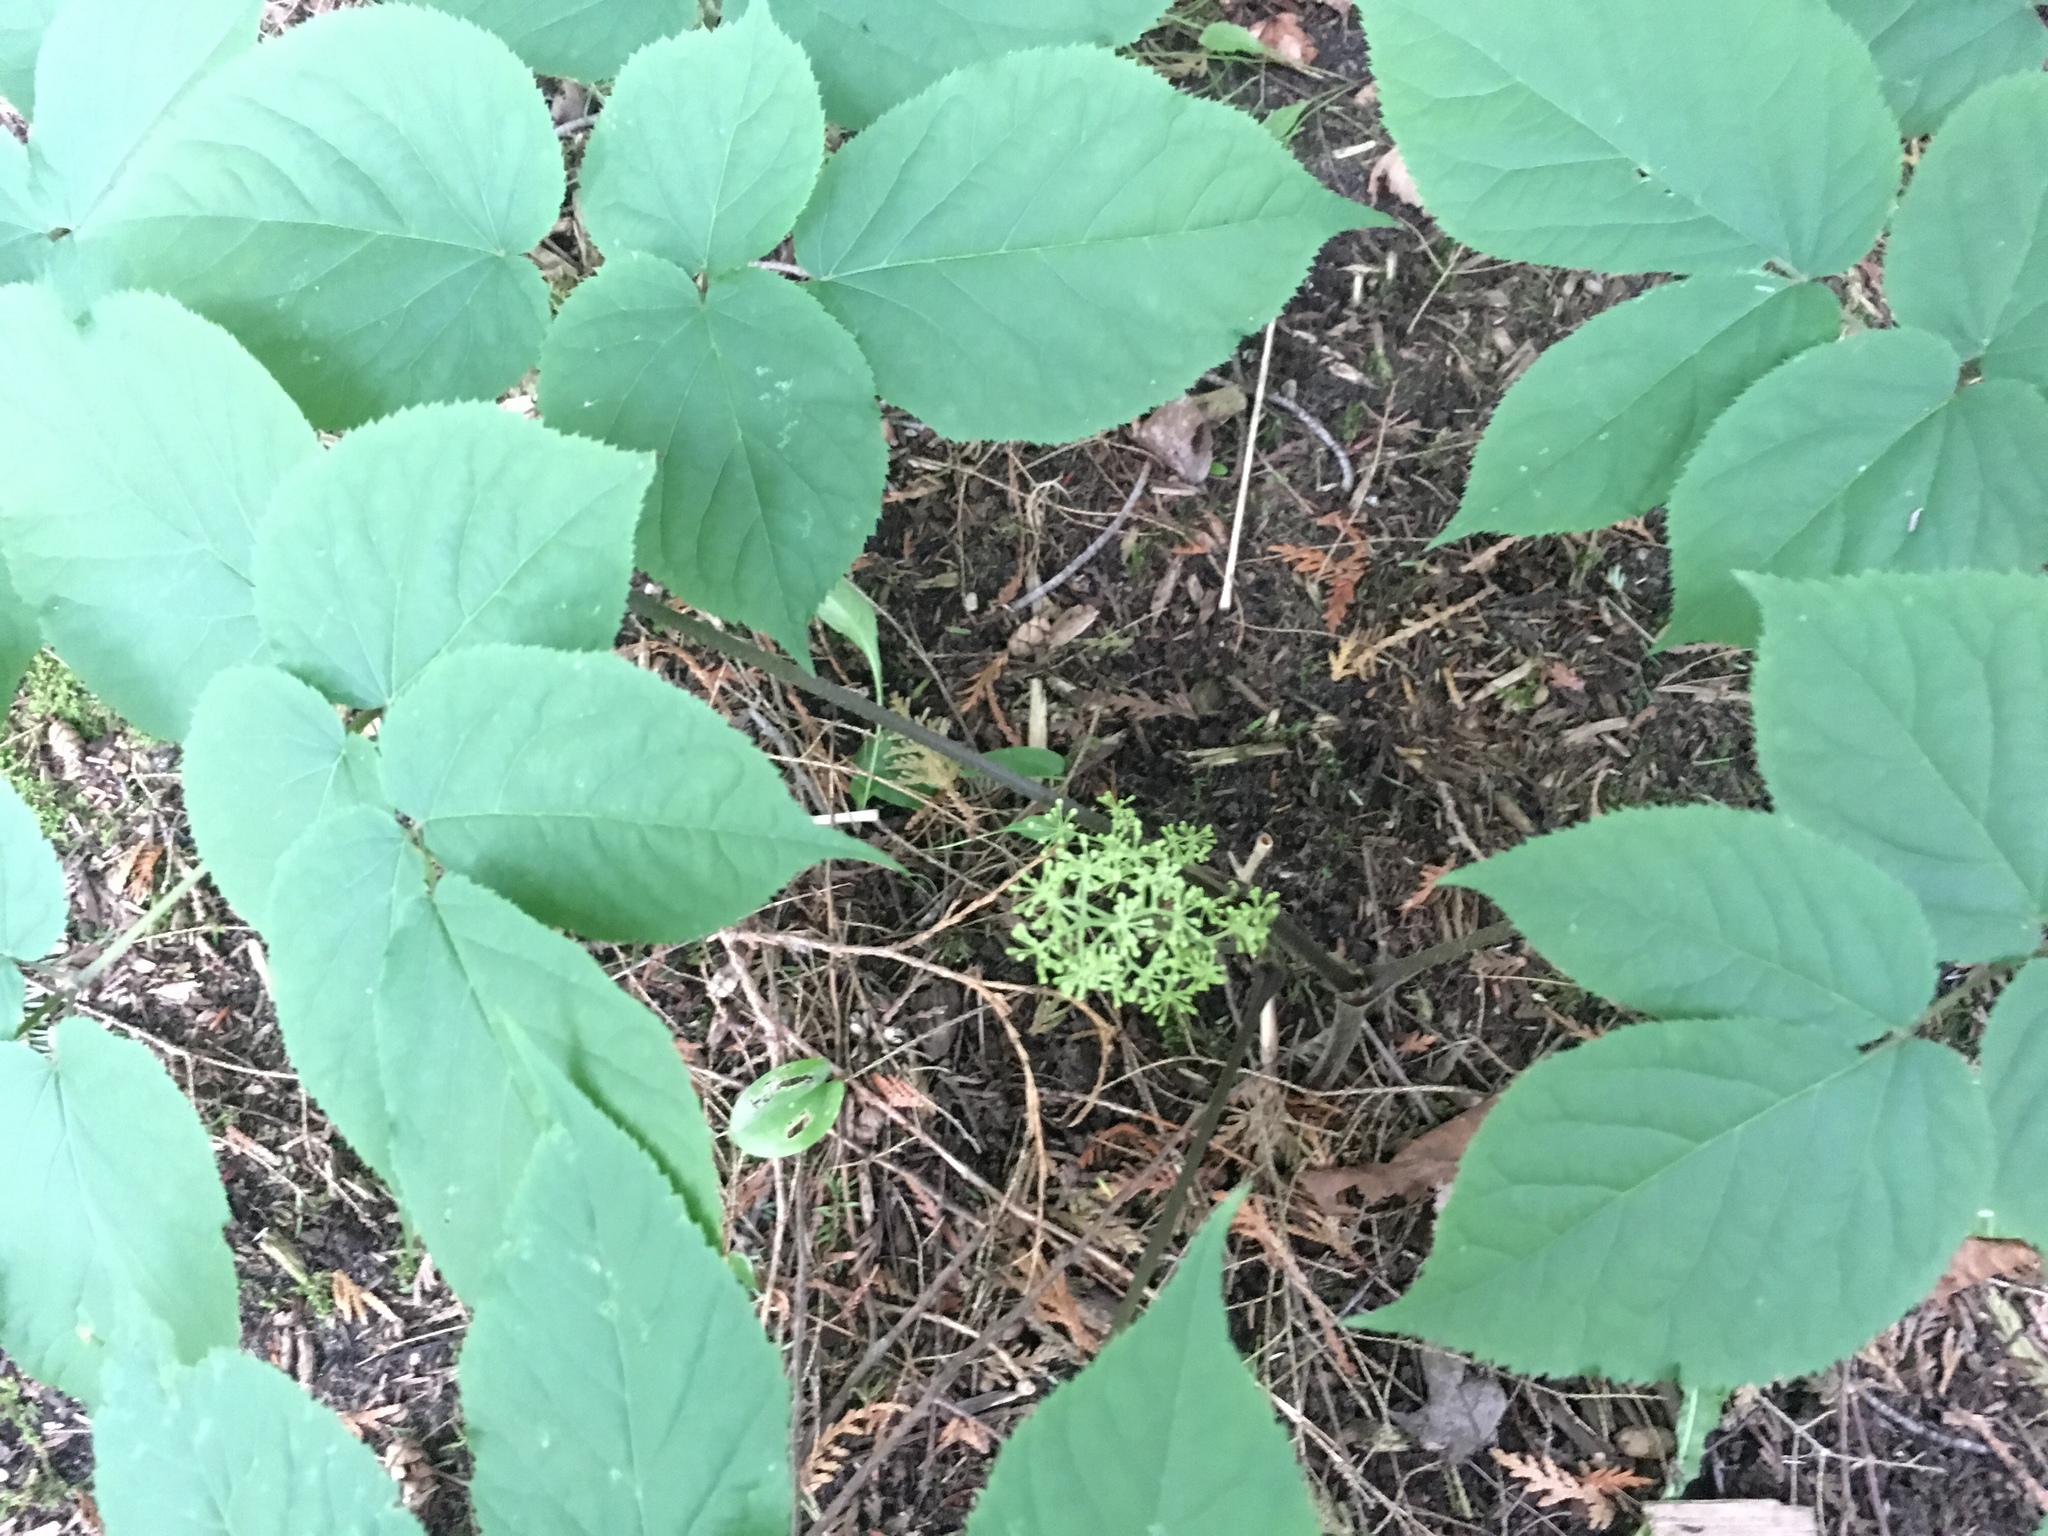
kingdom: Plantae
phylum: Tracheophyta
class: Magnoliopsida
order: Apiales
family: Araliaceae
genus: Aralia
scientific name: Aralia racemosa
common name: American-spikenard
